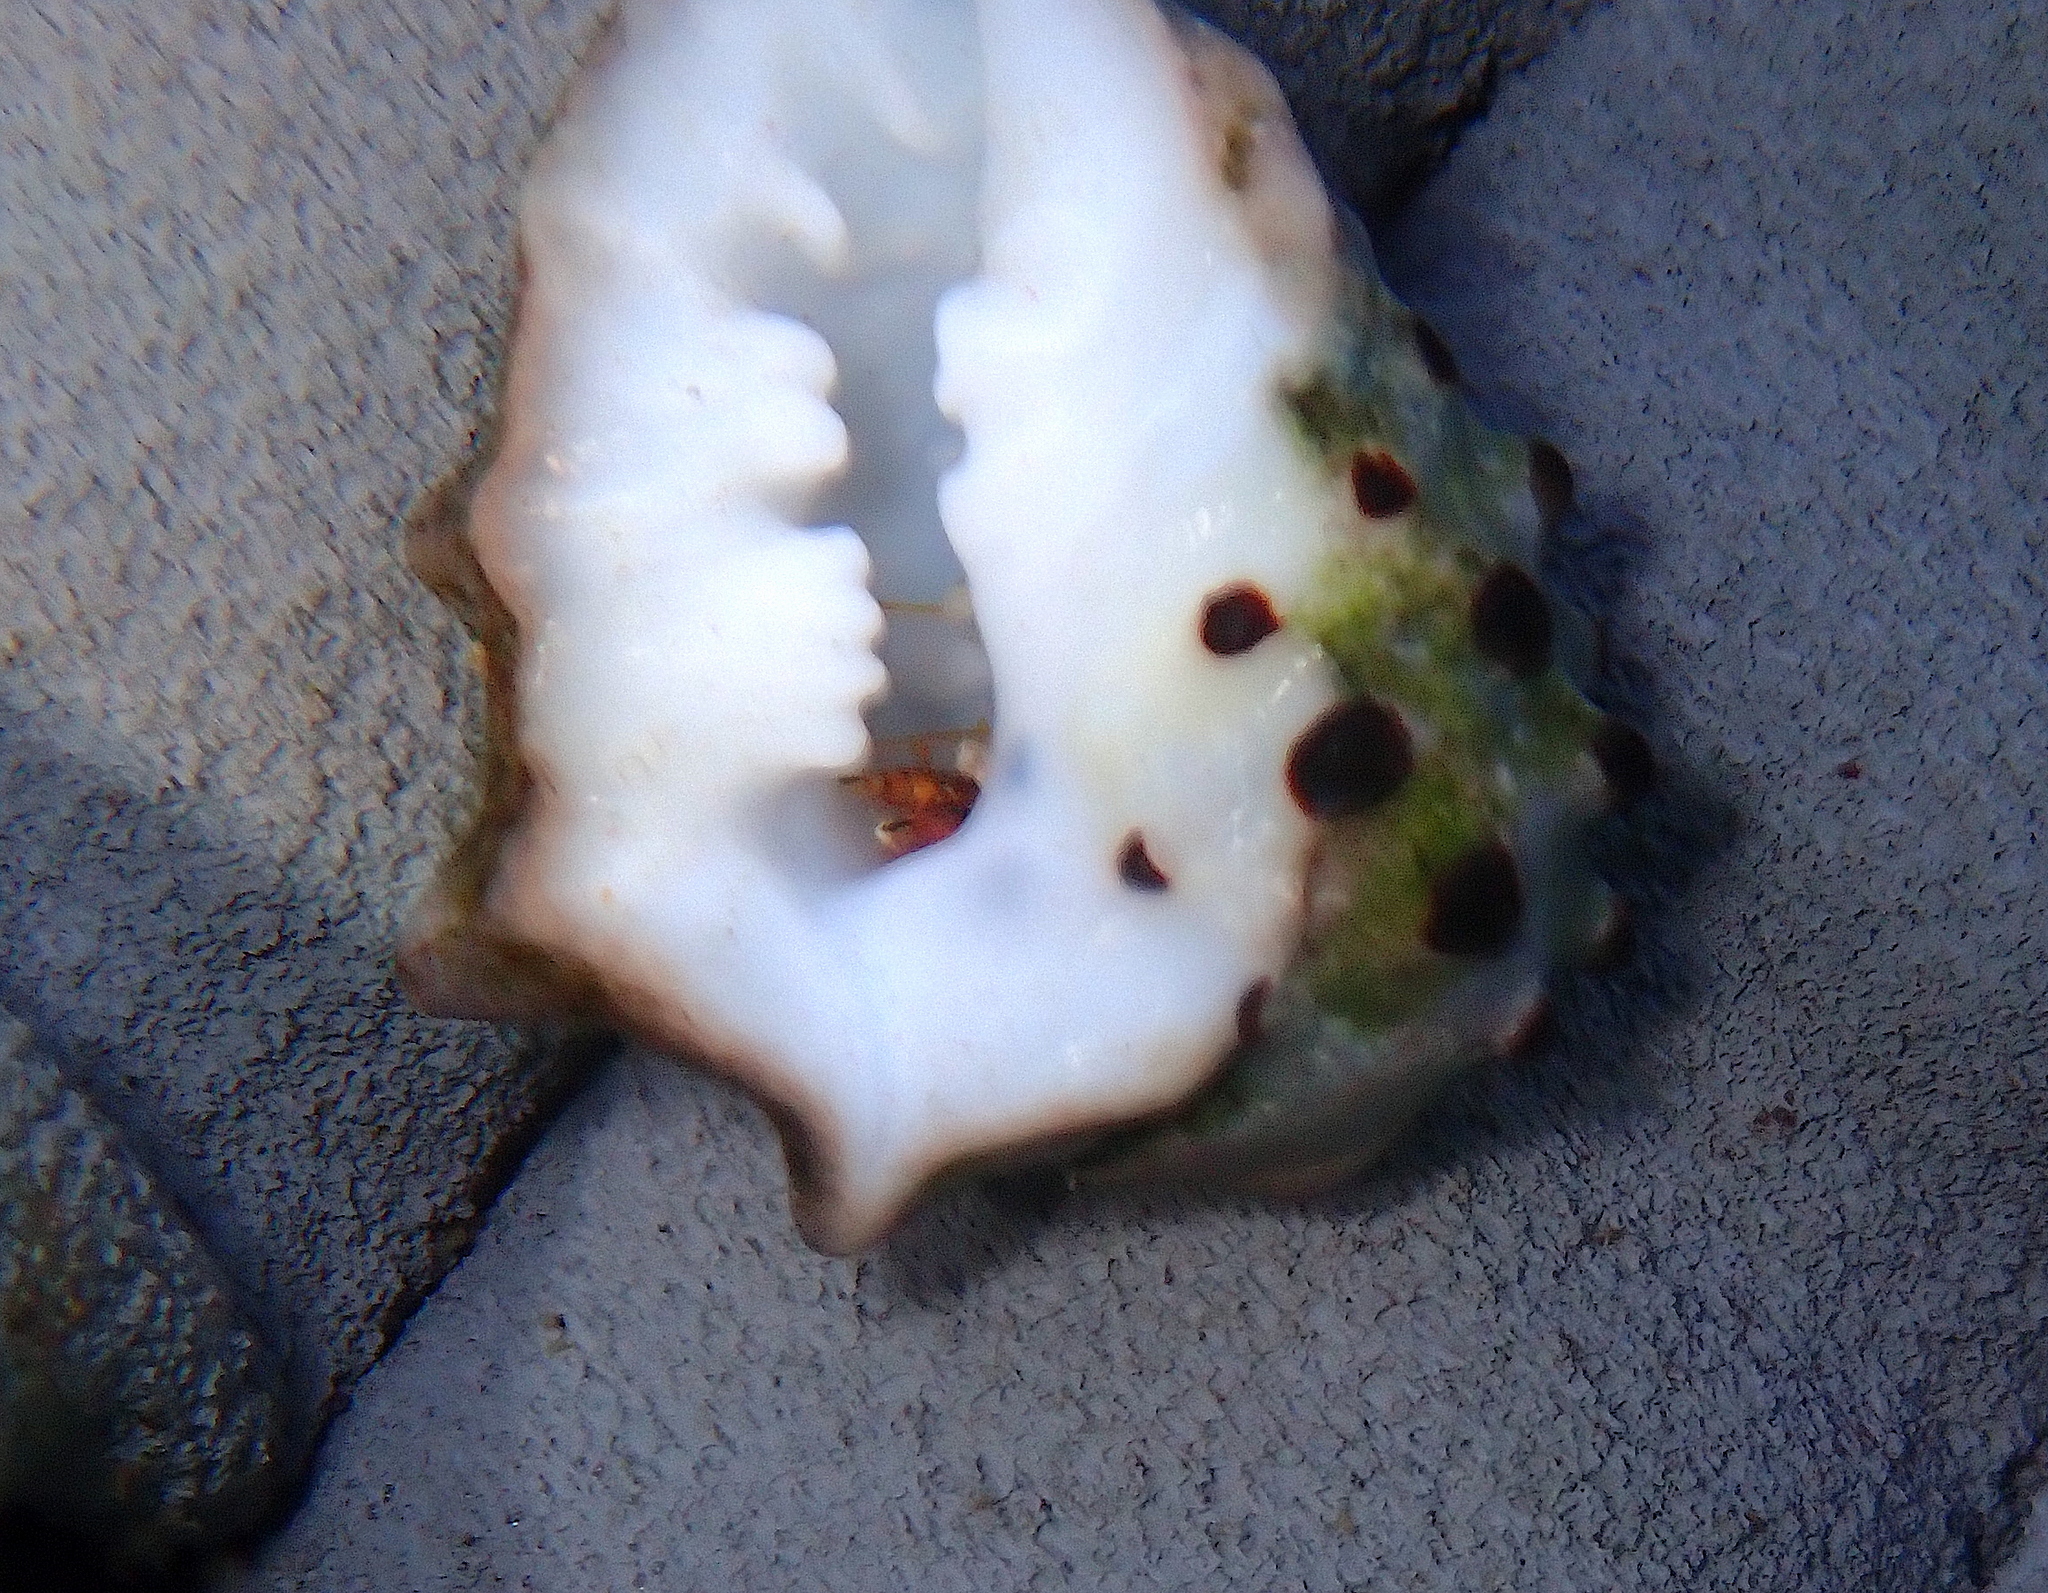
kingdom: Animalia
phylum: Mollusca
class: Gastropoda
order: Neogastropoda
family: Muricidae
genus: Drupa
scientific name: Drupa ricinus
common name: White-lipped castor bean
